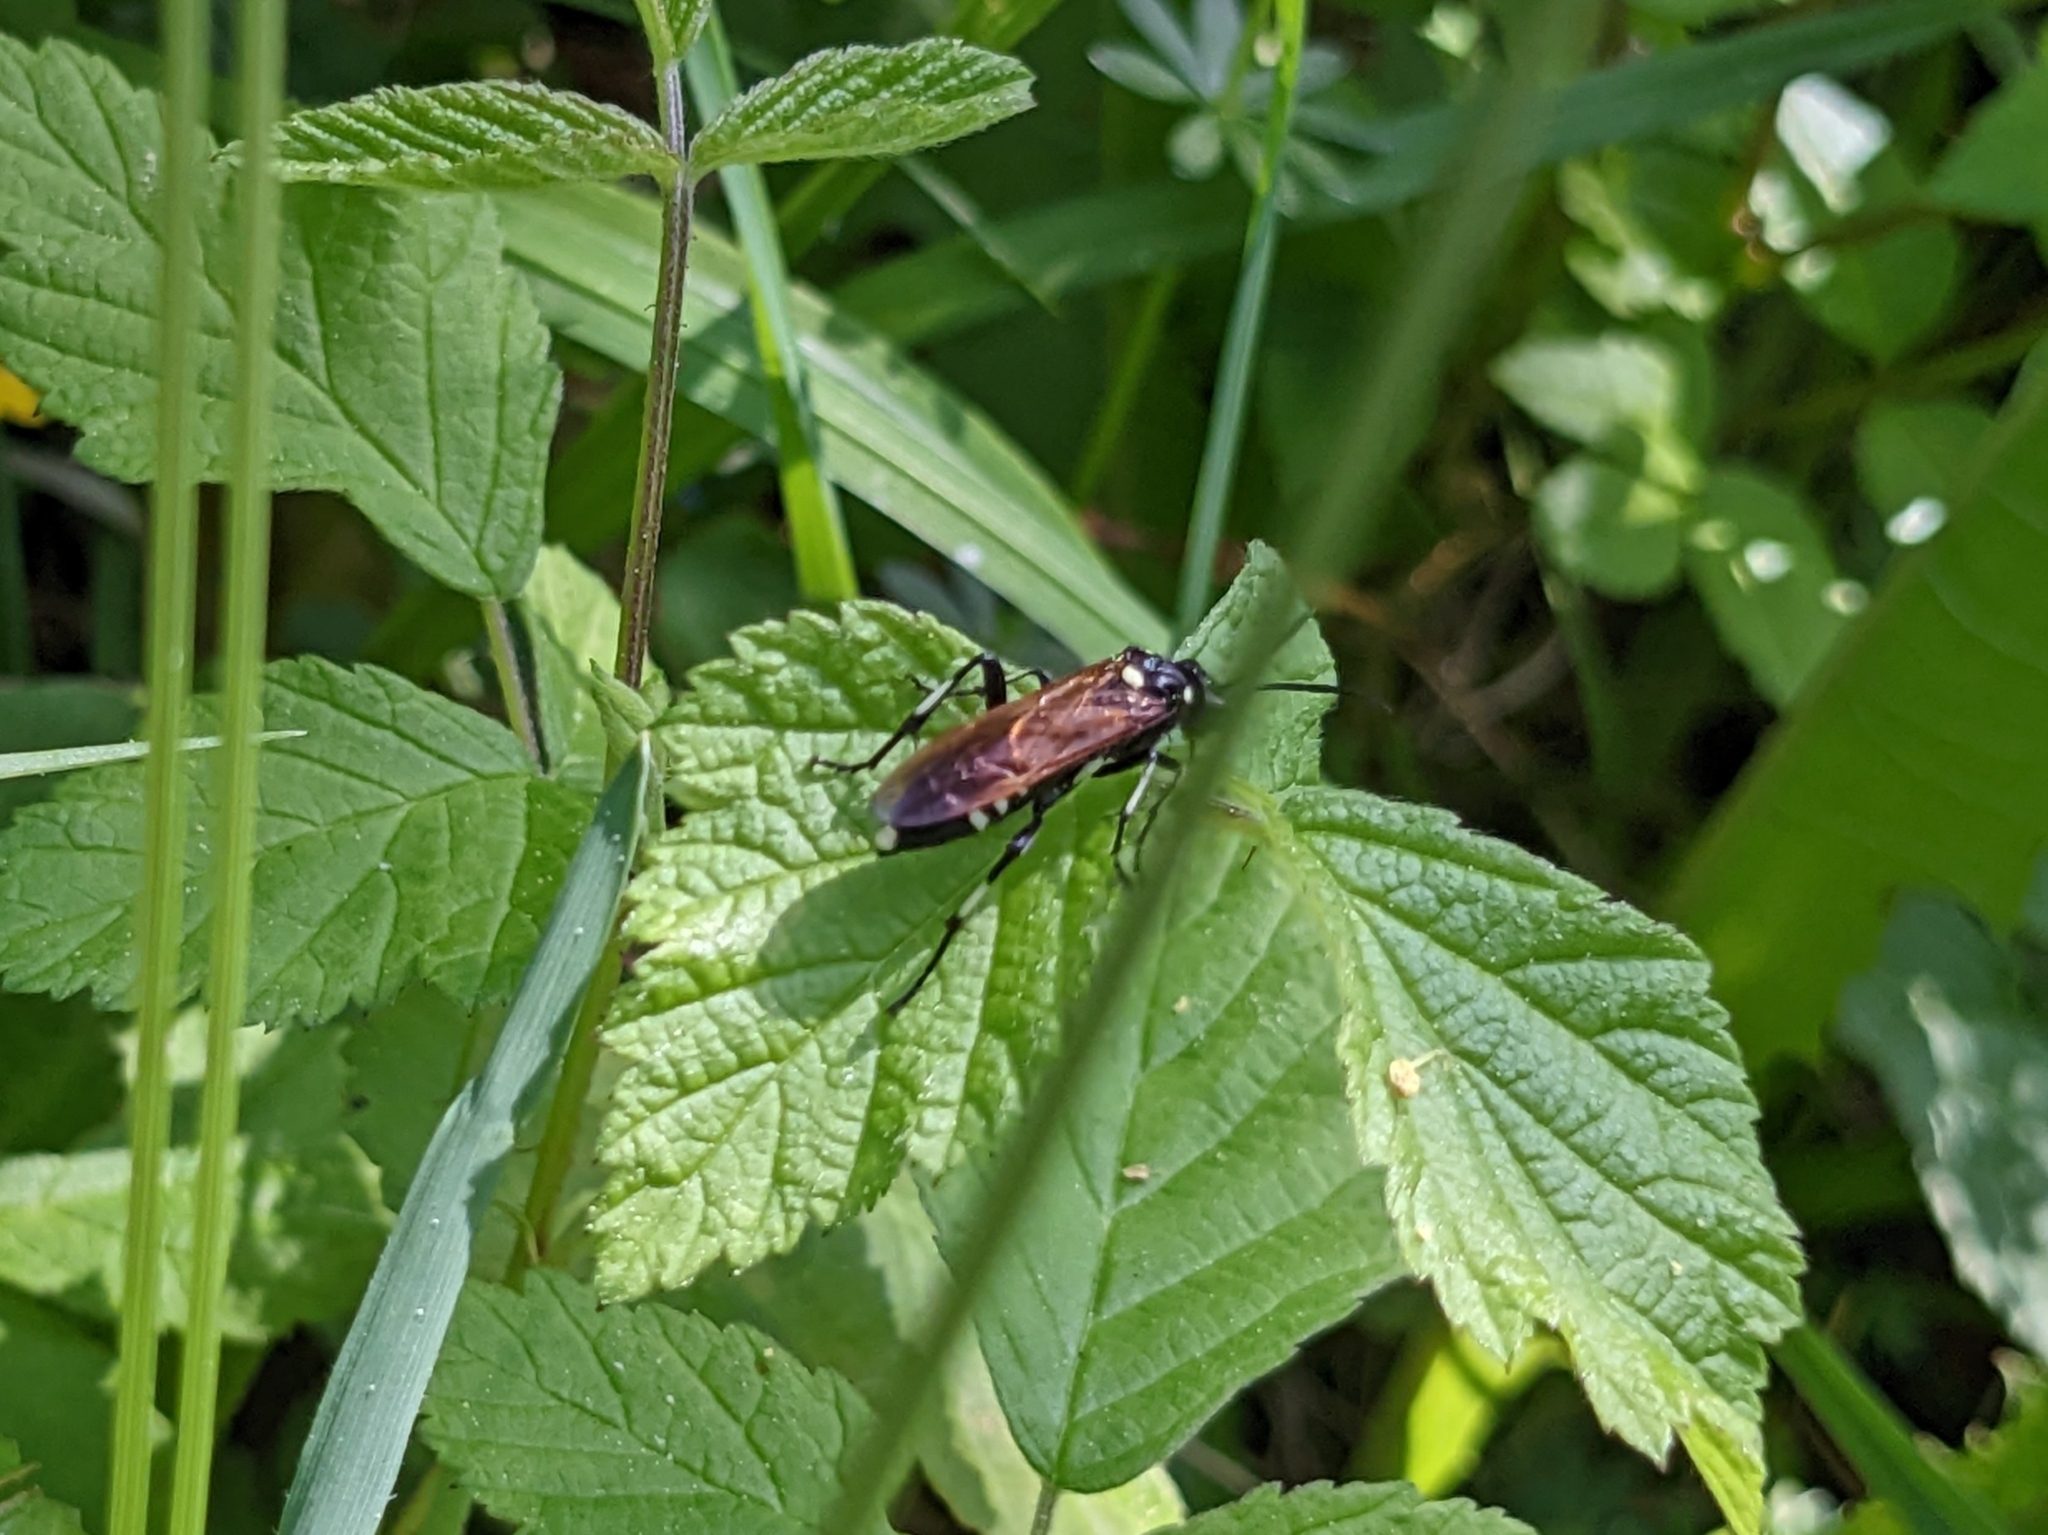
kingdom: Animalia
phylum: Arthropoda
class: Insecta
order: Hymenoptera
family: Tenthredinidae
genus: Macrophya
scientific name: Macrophya duodecimpunctata
